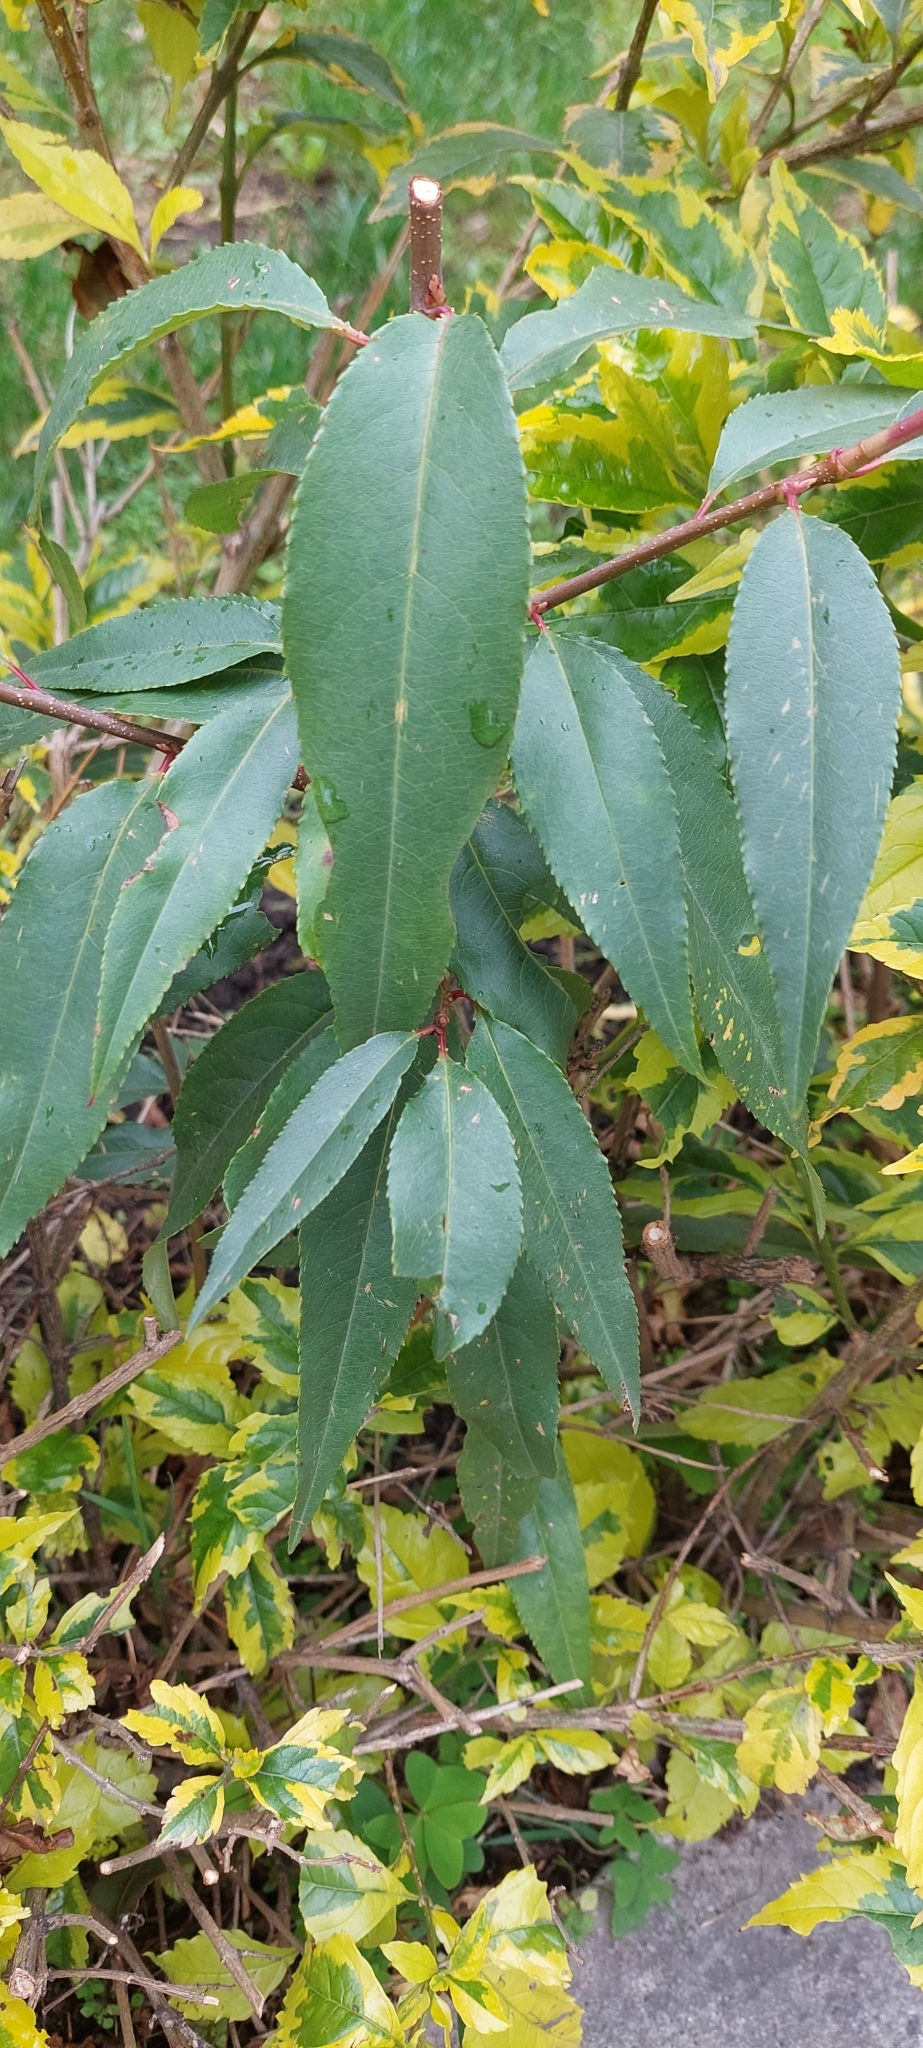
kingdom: Plantae
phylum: Tracheophyta
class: Magnoliopsida
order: Rosales
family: Rosaceae
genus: Prunus
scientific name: Prunus serotina
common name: Black cherry
